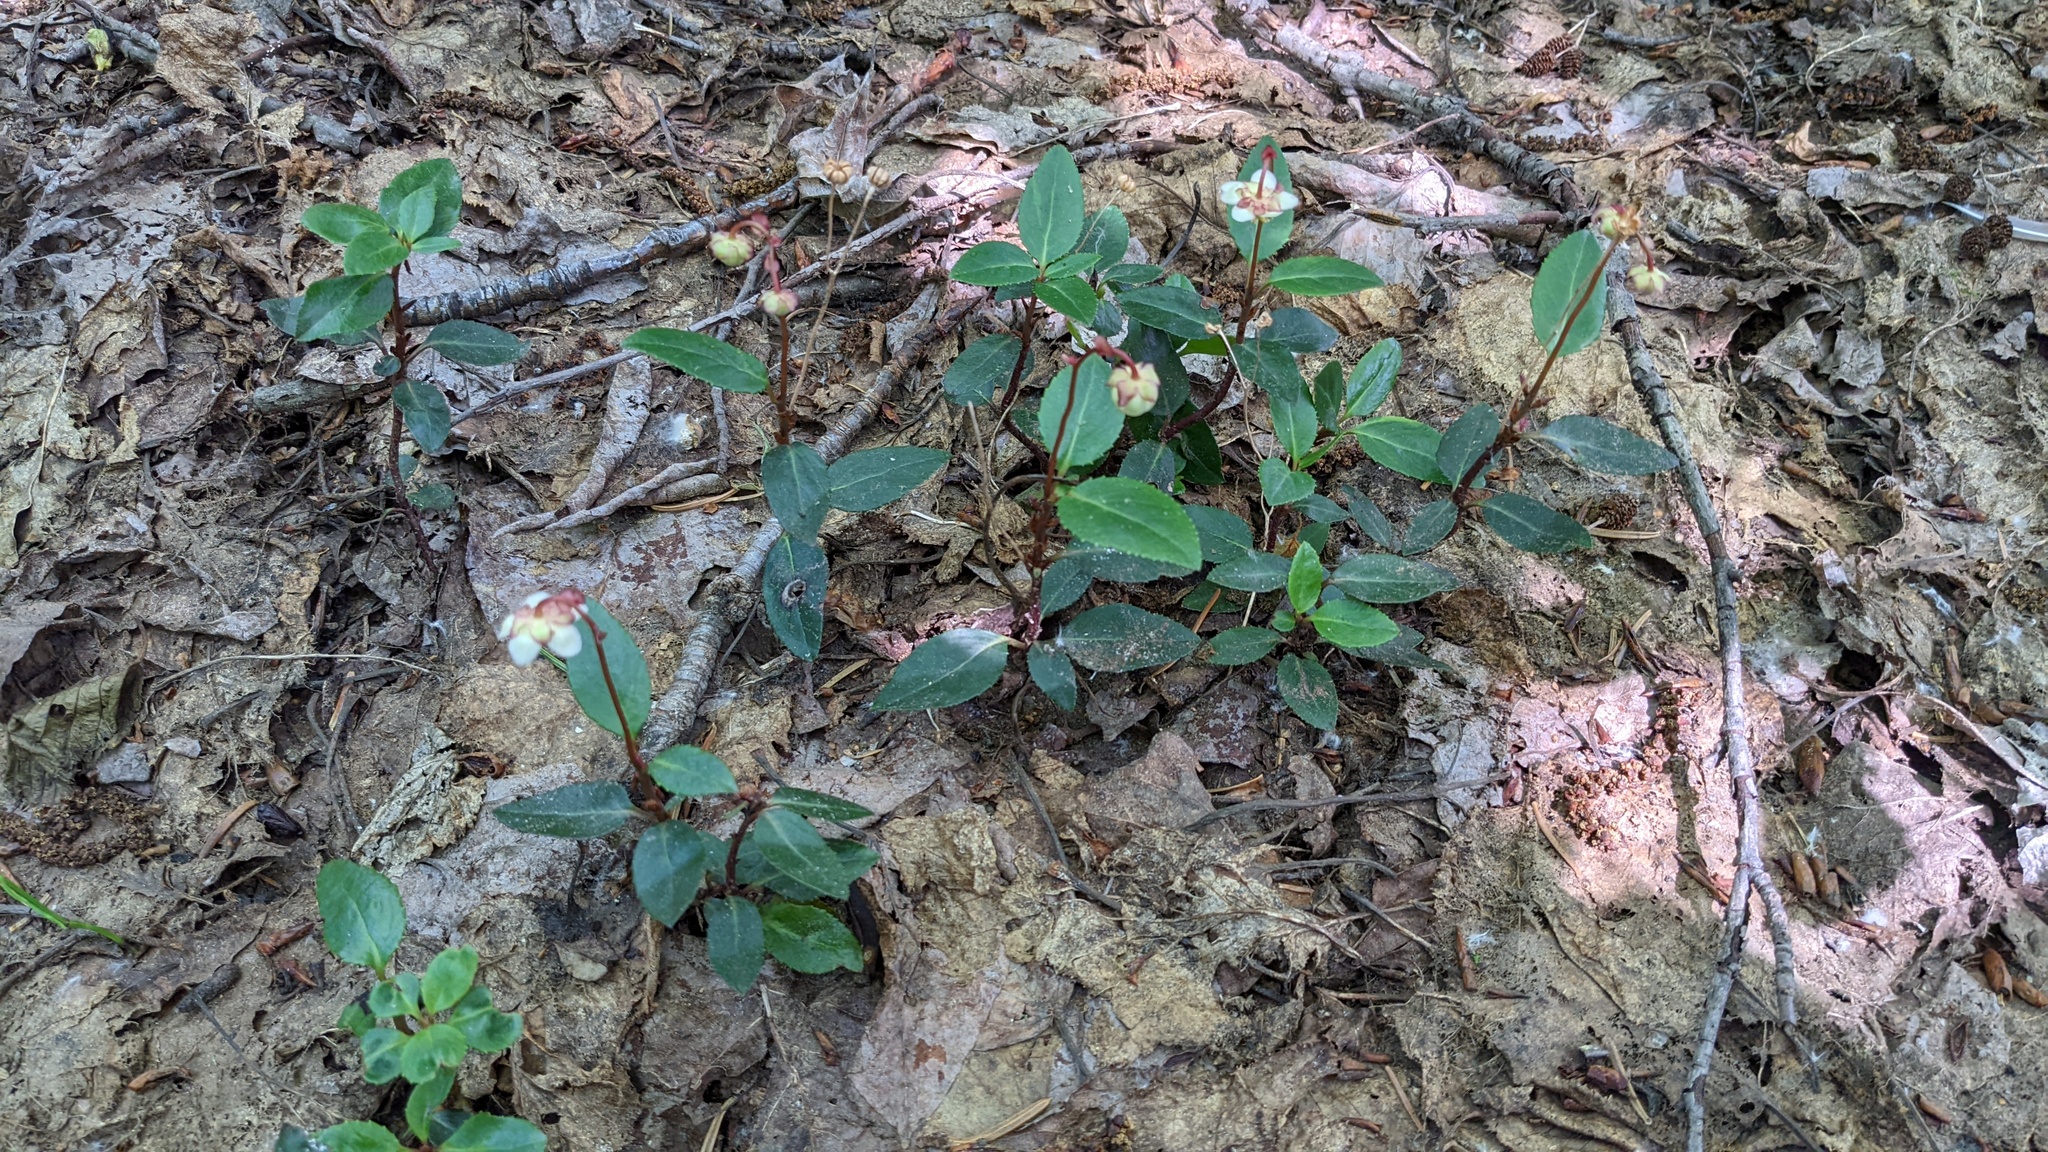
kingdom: Plantae
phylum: Tracheophyta
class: Magnoliopsida
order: Ericales
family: Ericaceae
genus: Chimaphila
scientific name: Chimaphila menziesii
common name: Menzies' pipsissewa
